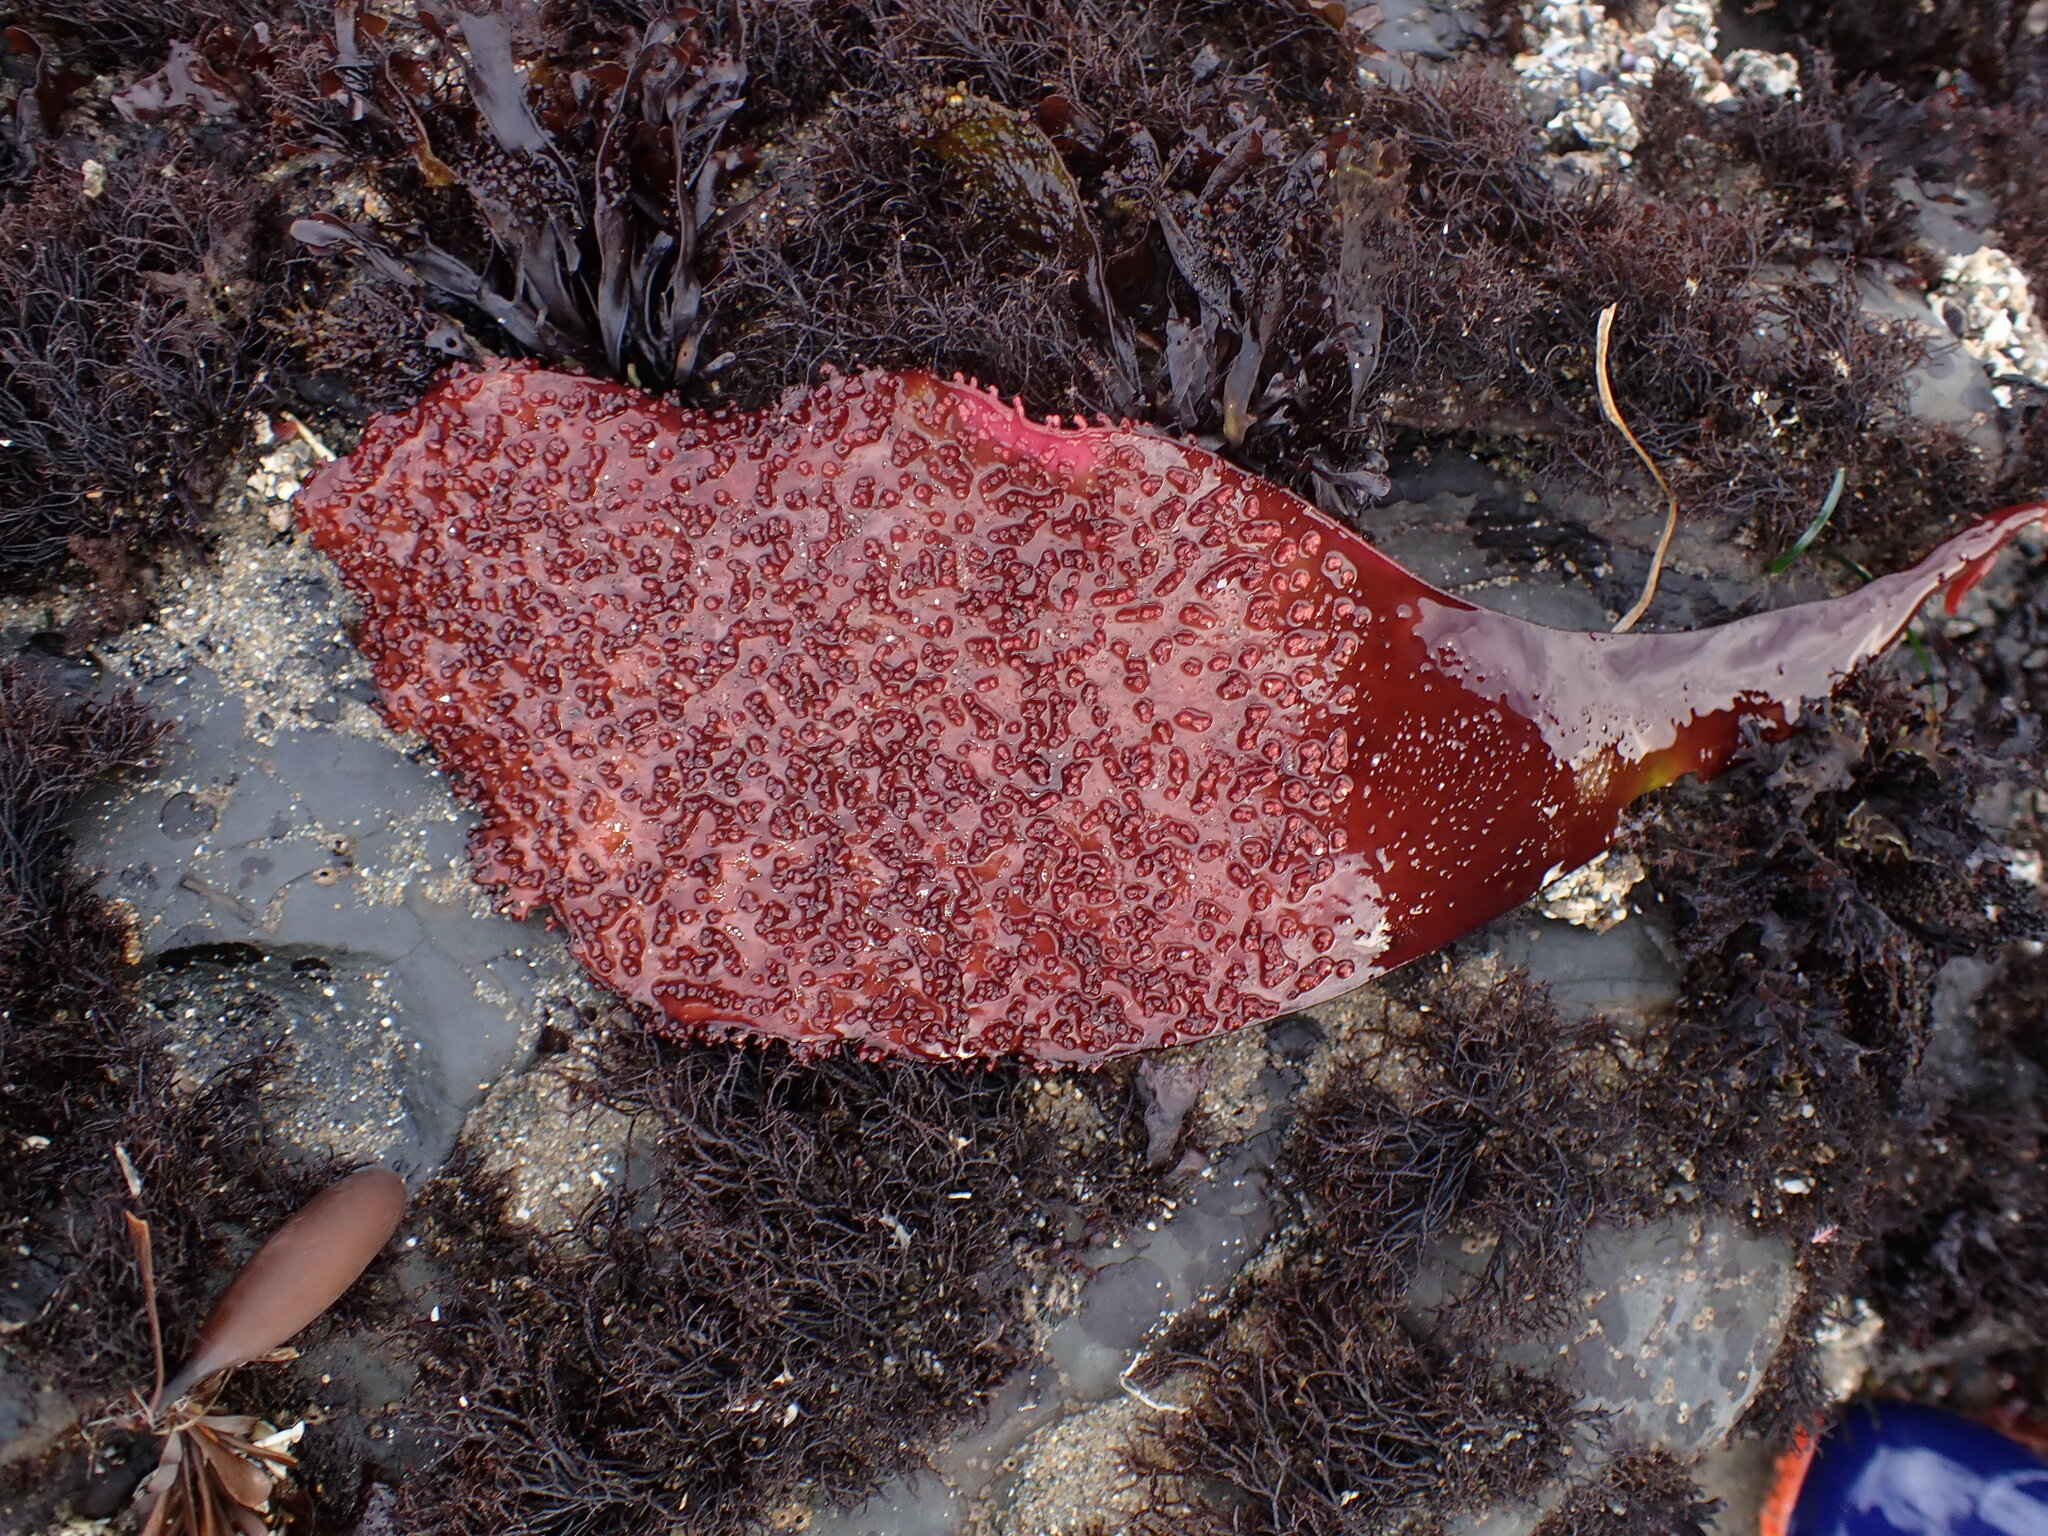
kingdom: Plantae
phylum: Rhodophyta
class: Florideophyceae
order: Gigartinales
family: Gigartinaceae
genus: Chondracanthus
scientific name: Chondracanthus exasperatus
